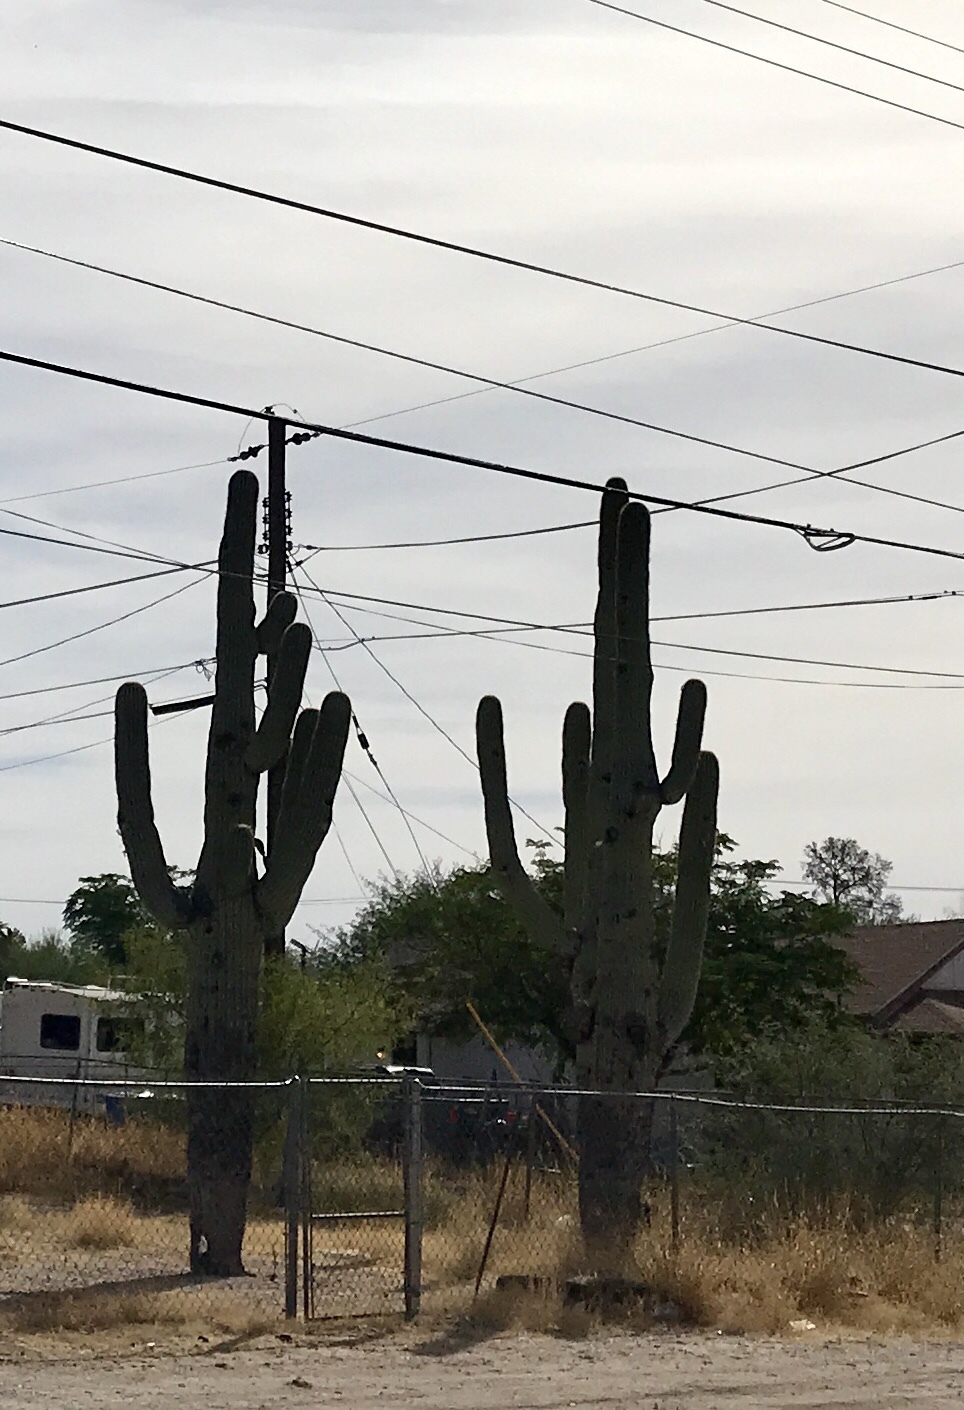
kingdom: Plantae
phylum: Tracheophyta
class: Magnoliopsida
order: Caryophyllales
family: Cactaceae
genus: Carnegiea
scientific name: Carnegiea gigantea
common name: Saguaro
